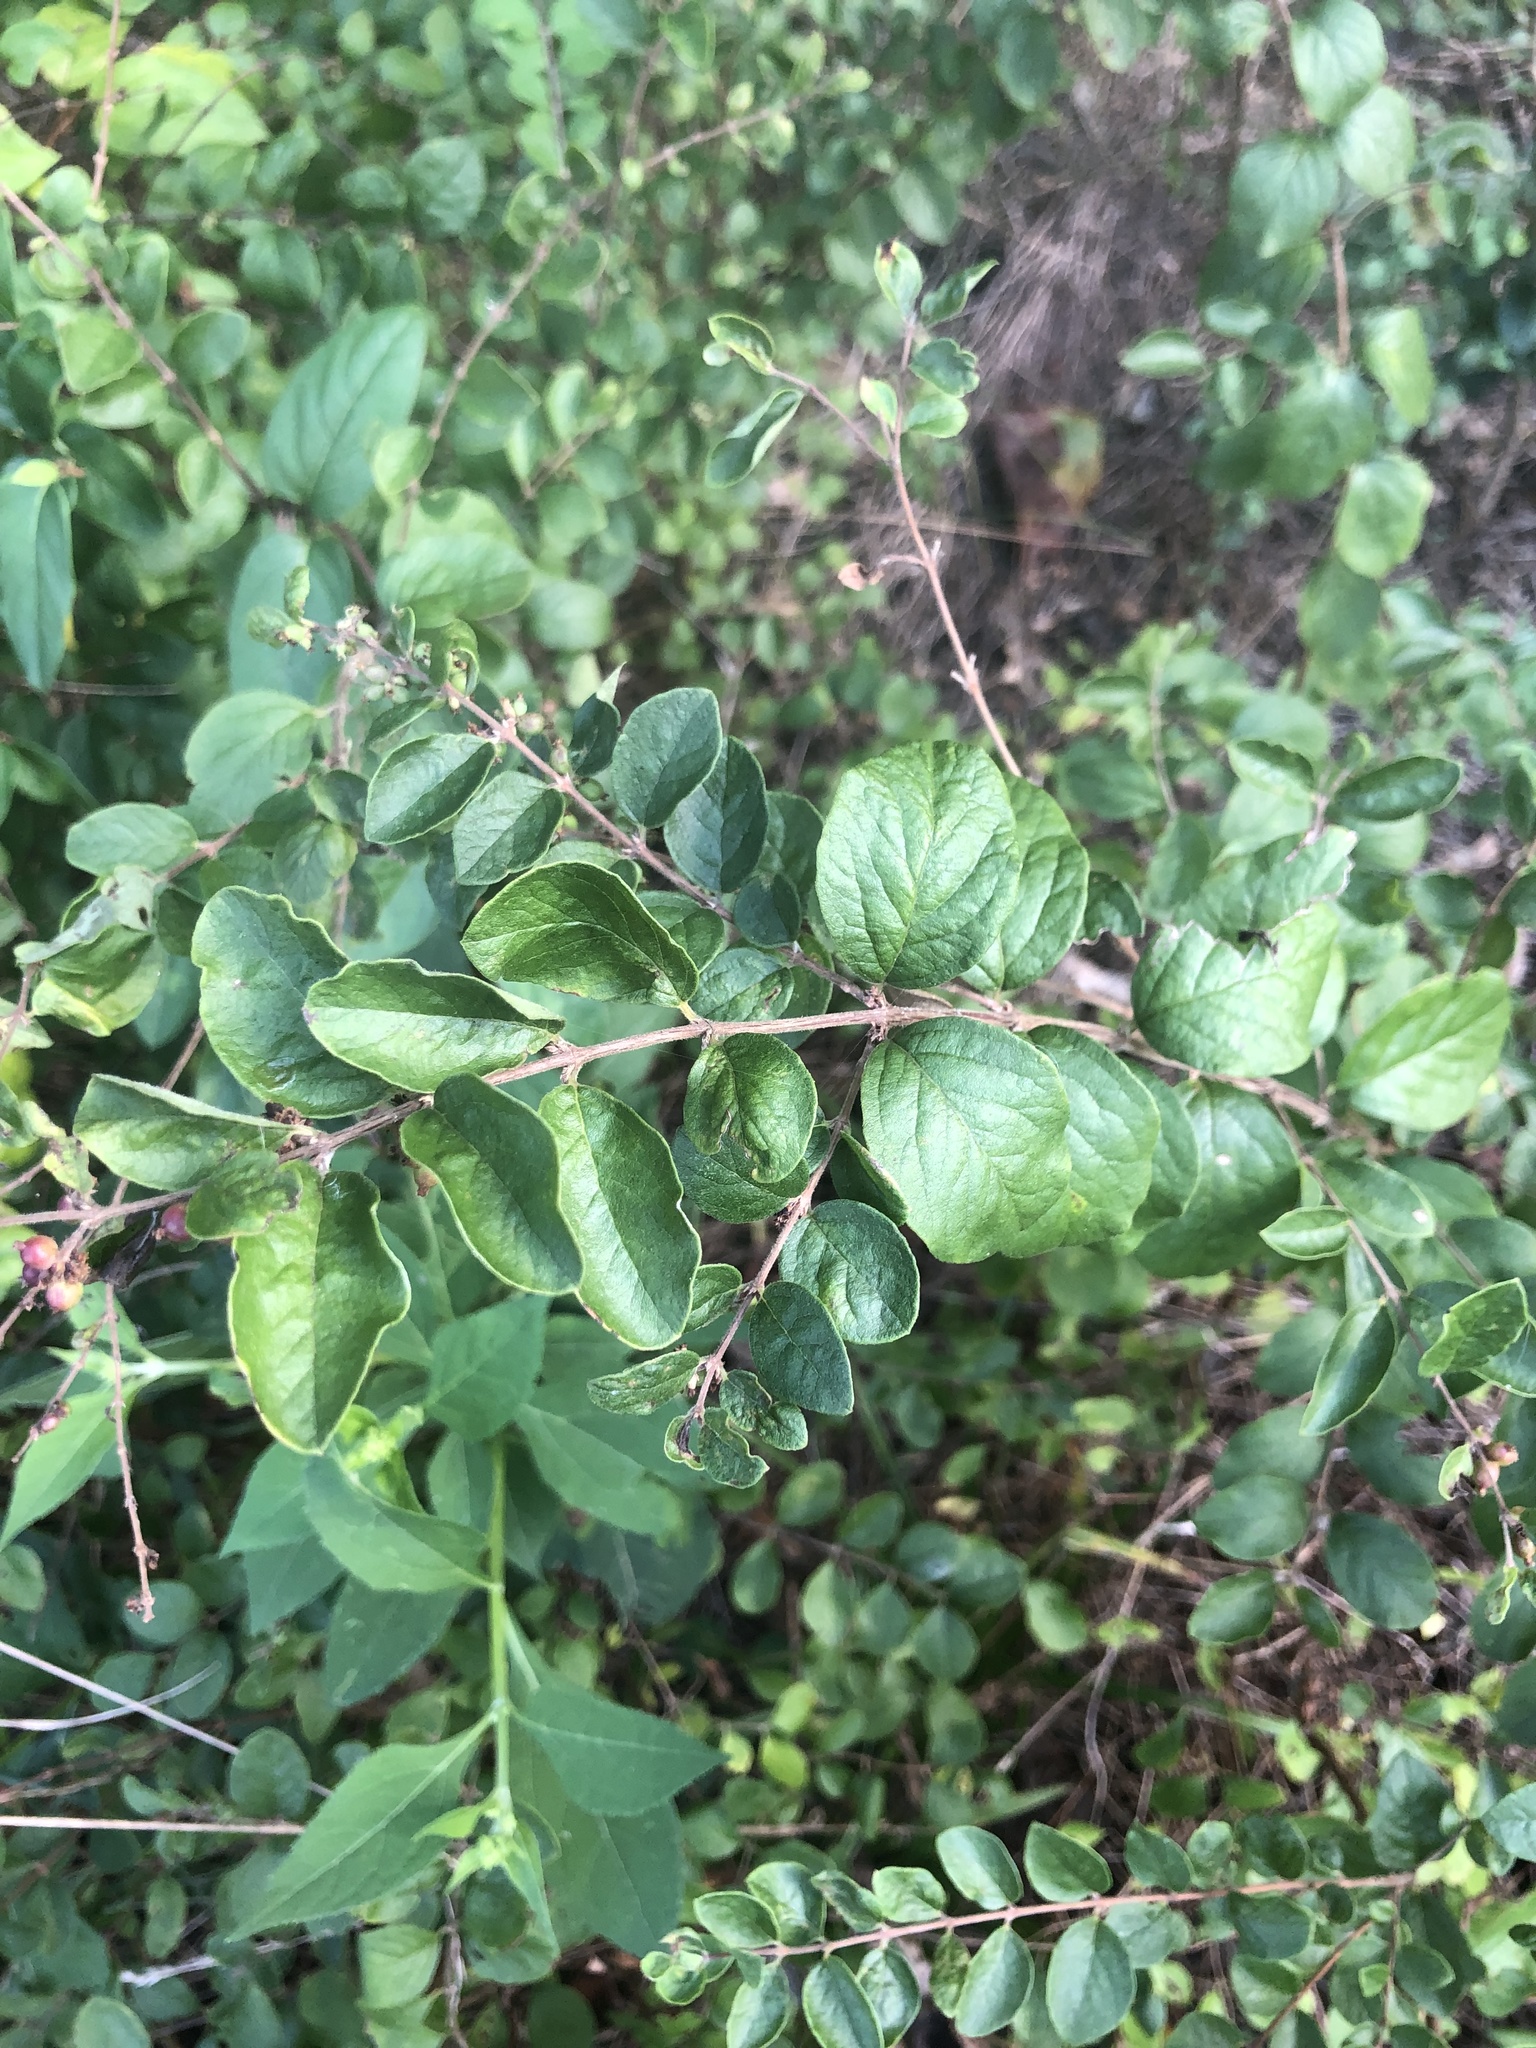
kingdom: Plantae
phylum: Tracheophyta
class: Magnoliopsida
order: Dipsacales
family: Caprifoliaceae
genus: Symphoricarpos
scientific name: Symphoricarpos orbiculatus
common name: Coralberry
